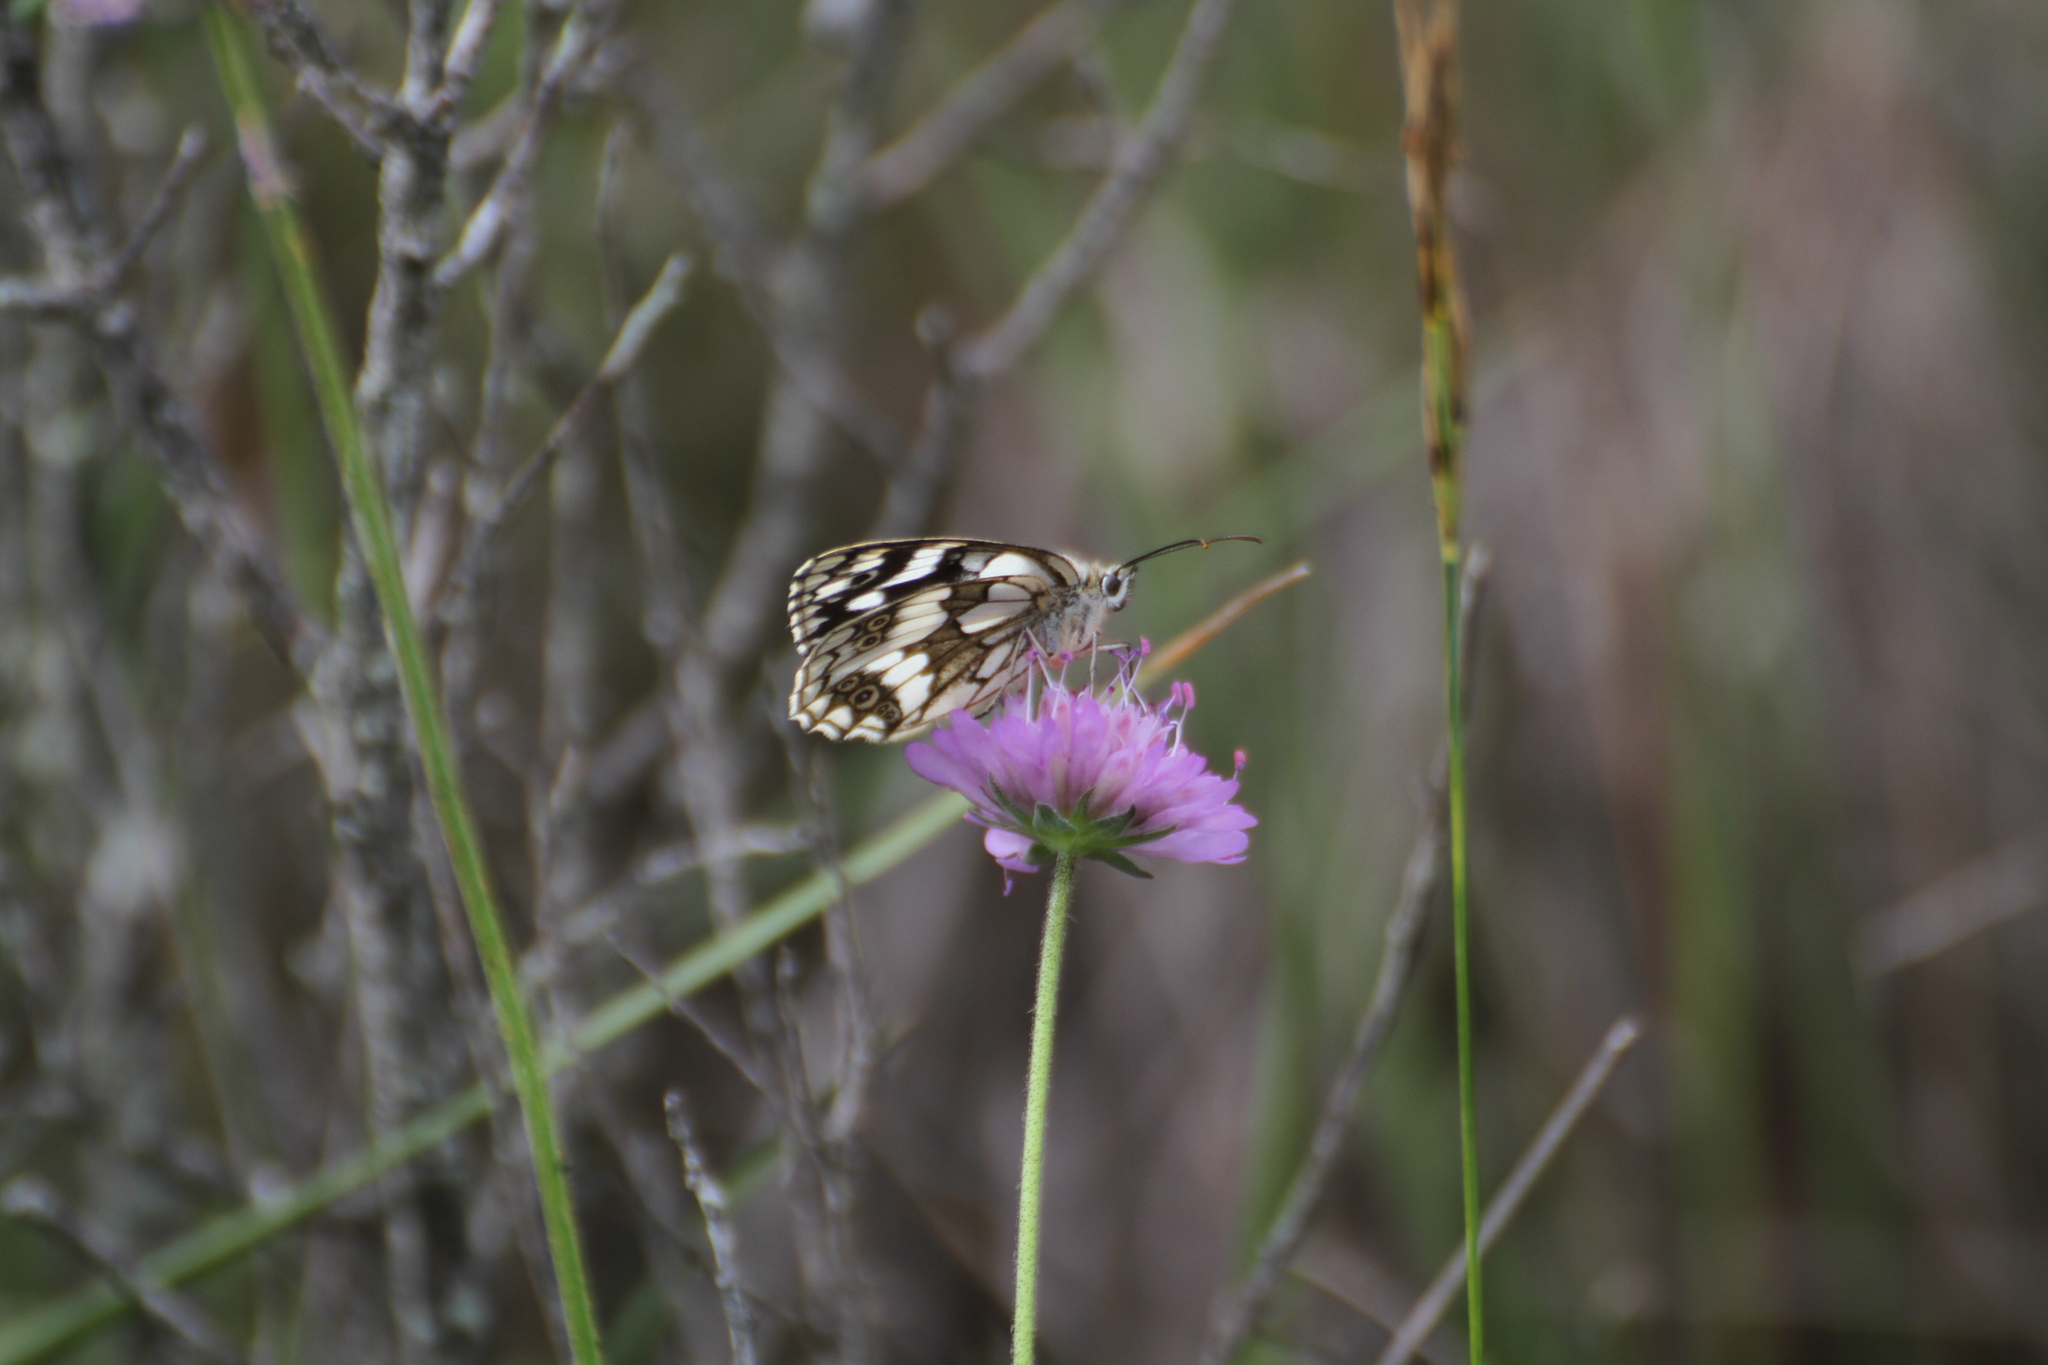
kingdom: Animalia
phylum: Arthropoda
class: Insecta
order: Lepidoptera
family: Nymphalidae
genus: Melanargia
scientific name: Melanargia galathea
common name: Marbled white
